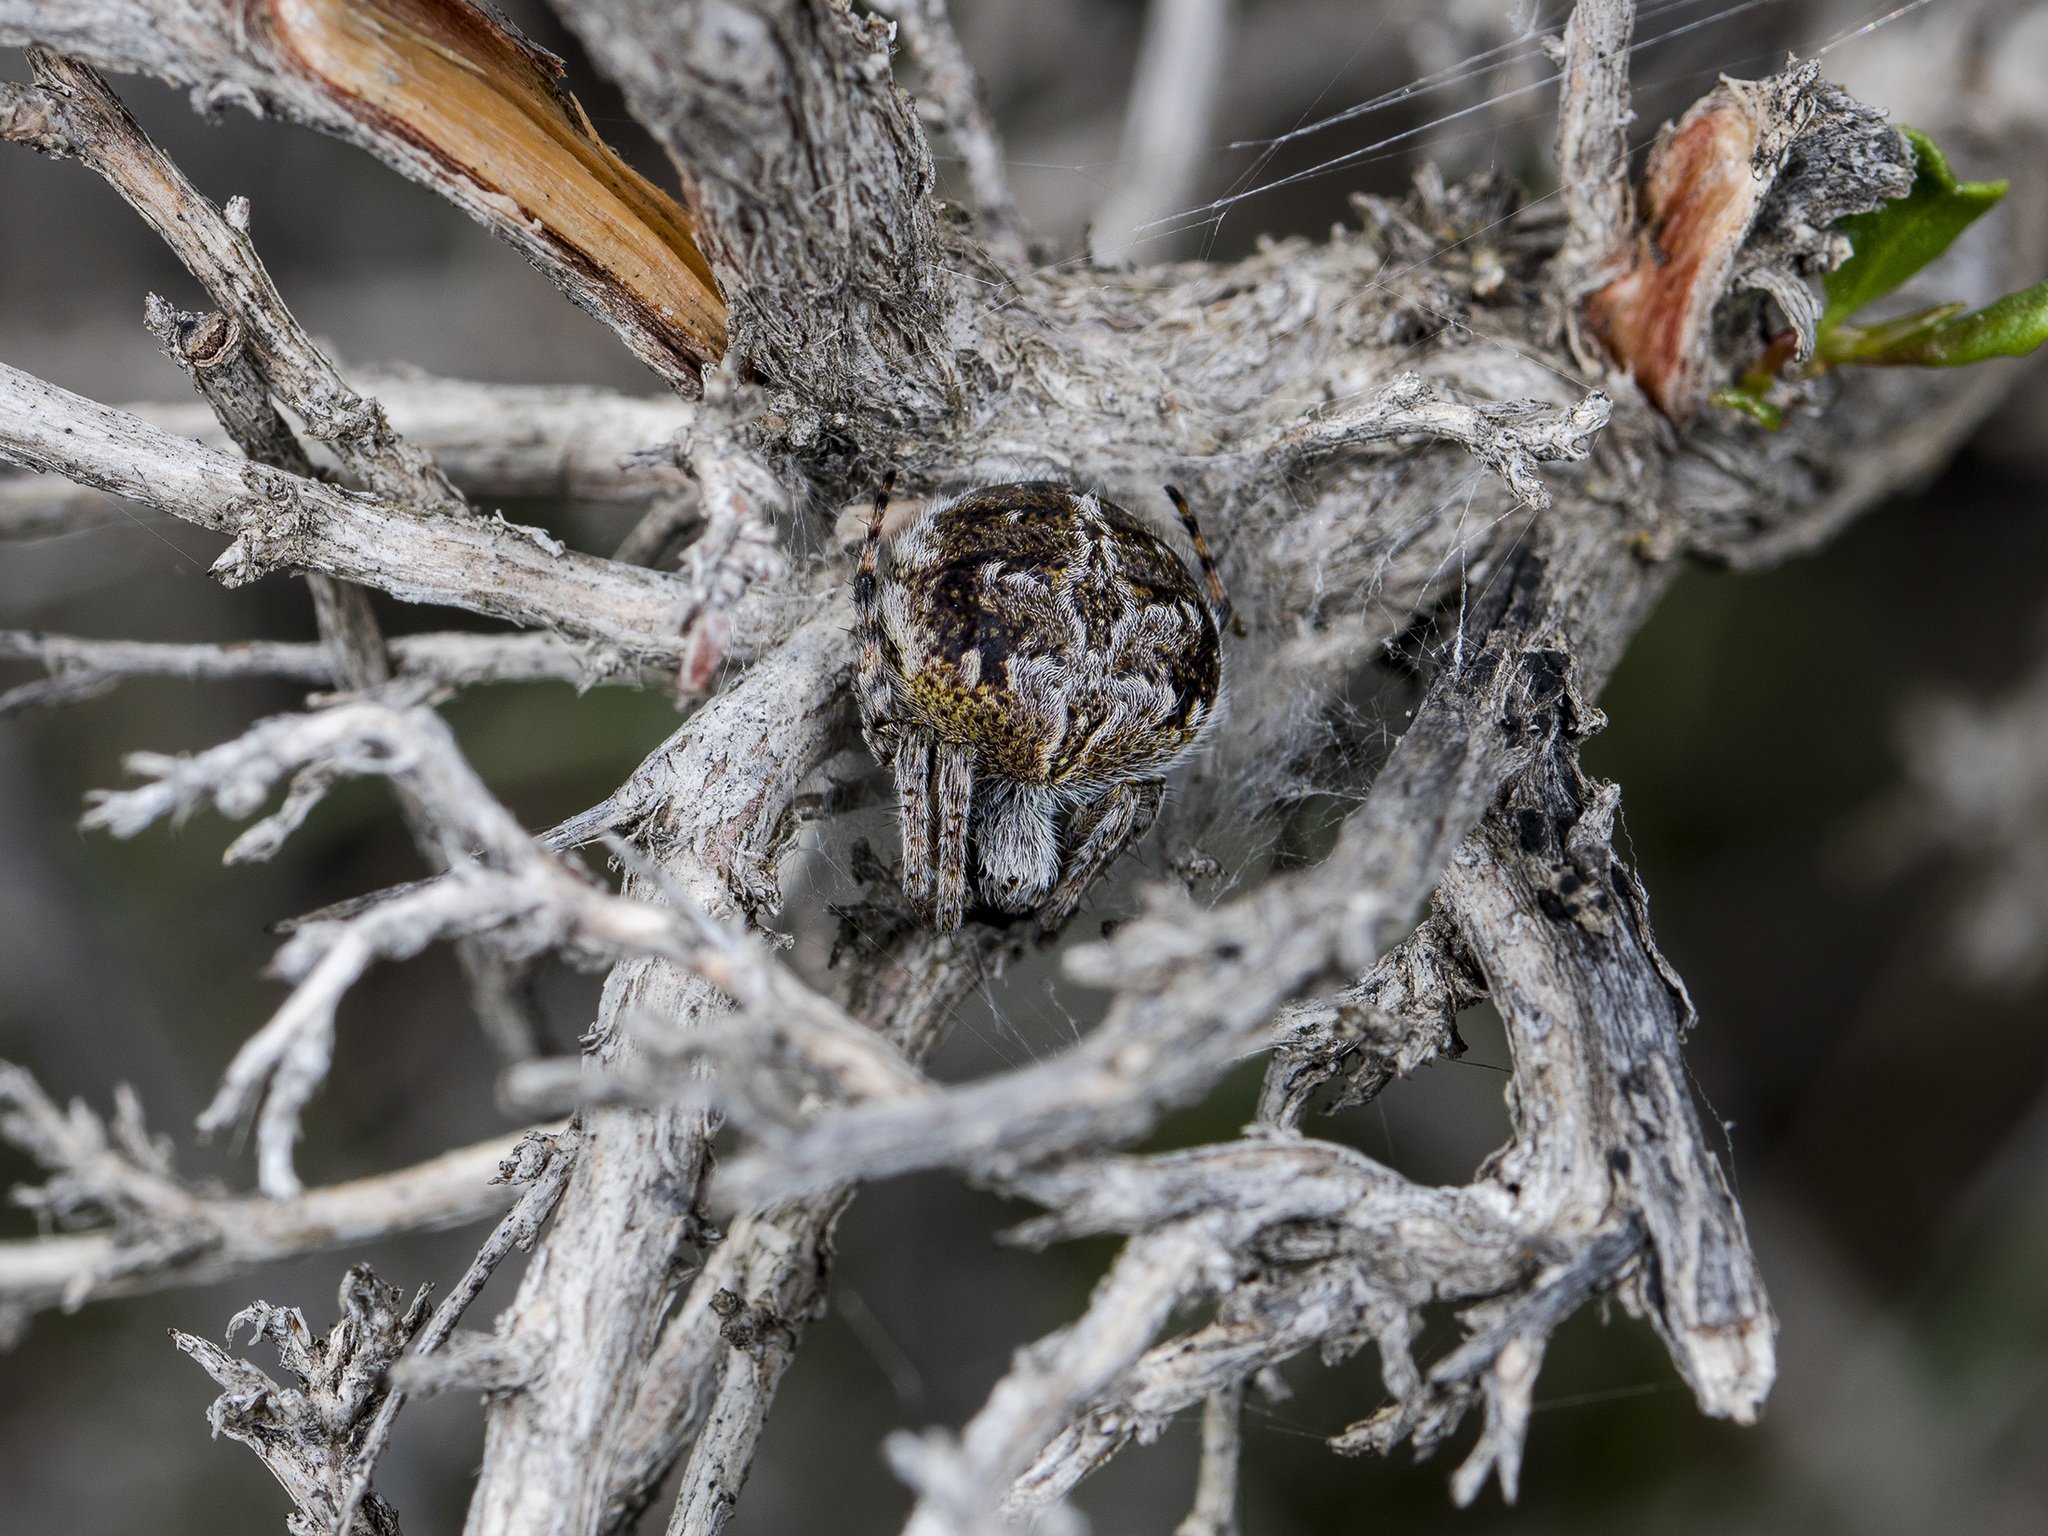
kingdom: Animalia
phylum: Arthropoda
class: Arachnida
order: Araneae
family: Araneidae
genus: Agalenatea
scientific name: Agalenatea redii
